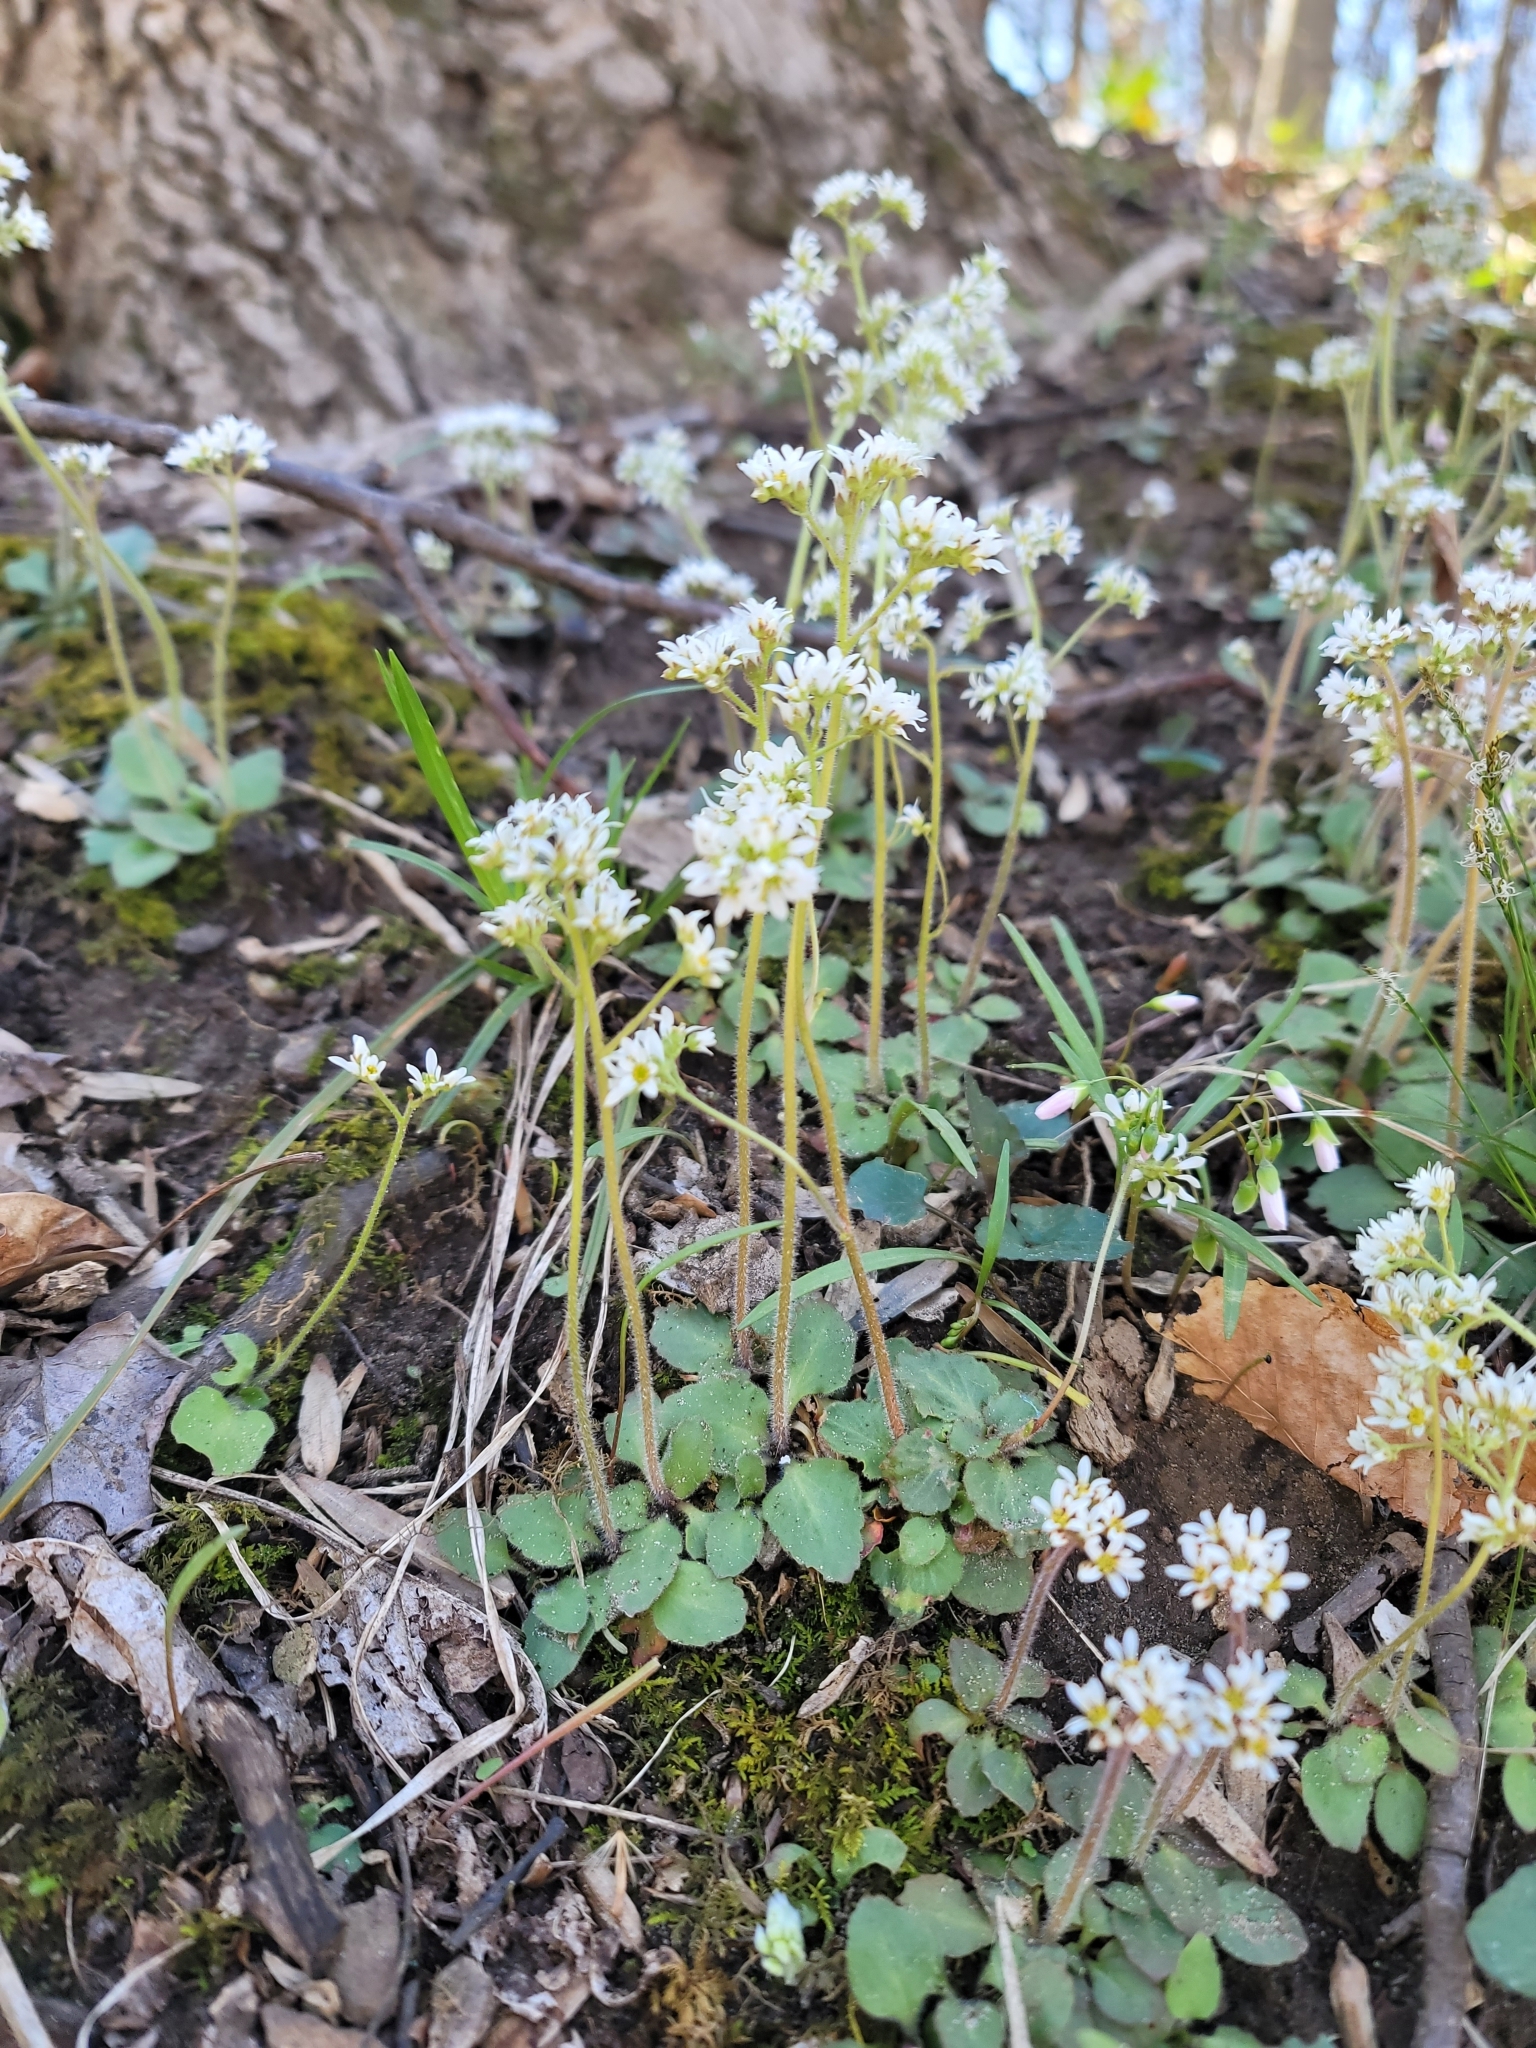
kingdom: Plantae
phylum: Tracheophyta
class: Magnoliopsida
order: Saxifragales
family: Saxifragaceae
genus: Micranthes
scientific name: Micranthes virginiensis
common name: Early saxifrage
